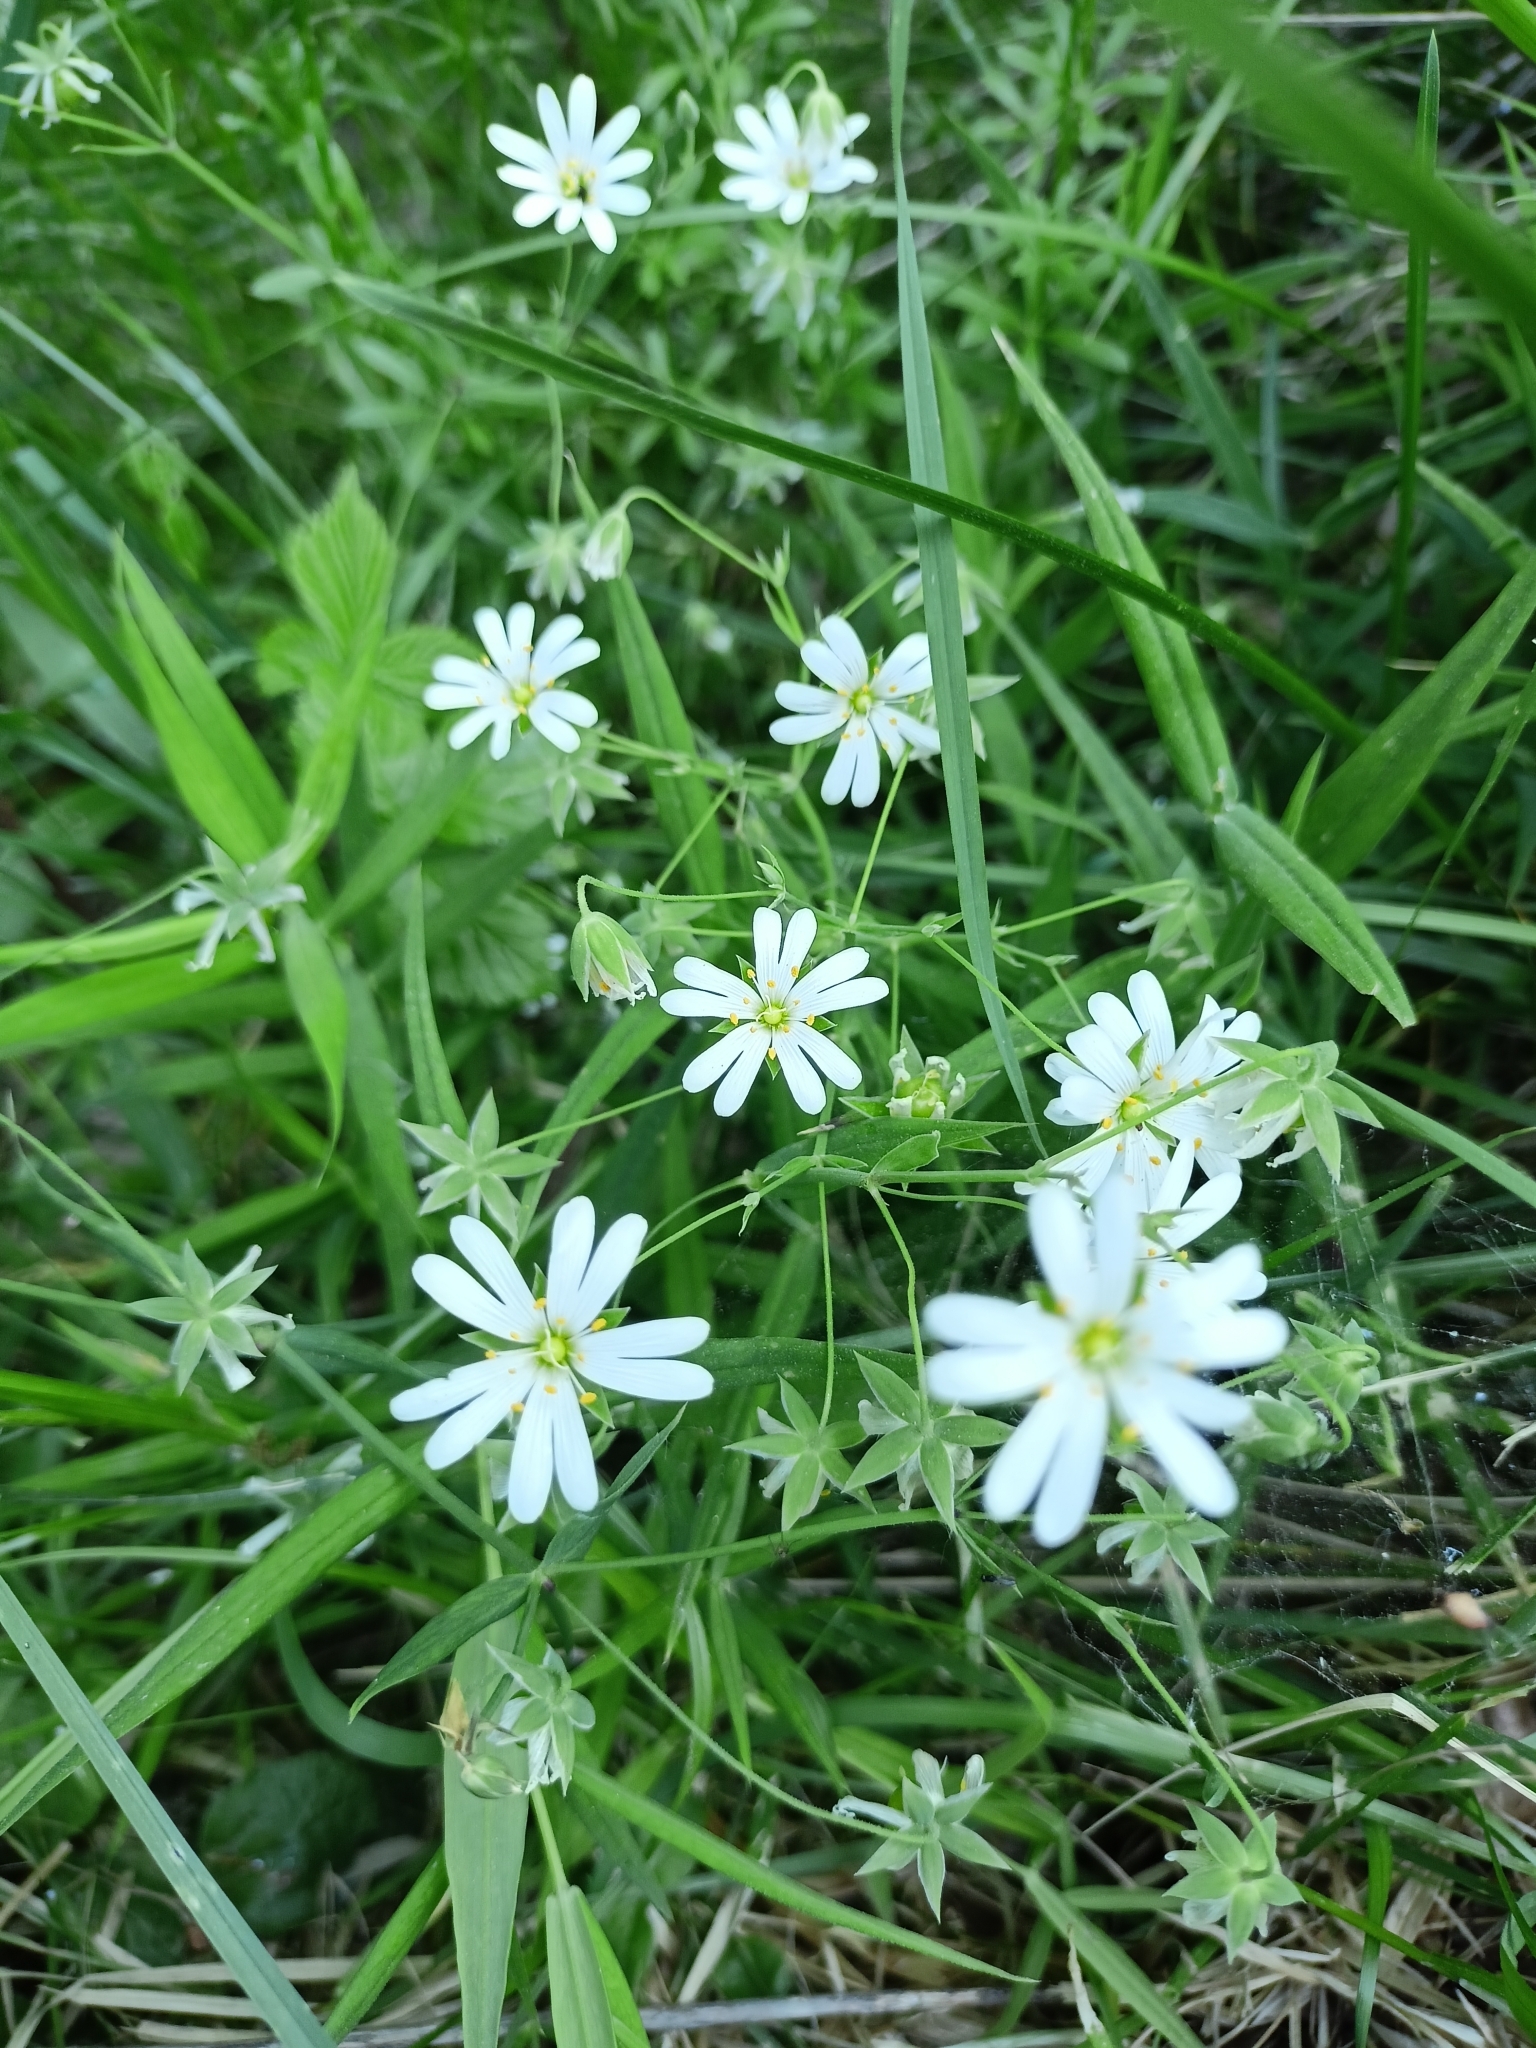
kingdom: Plantae
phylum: Tracheophyta
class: Magnoliopsida
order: Caryophyllales
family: Caryophyllaceae
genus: Rabelera
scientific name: Rabelera holostea
